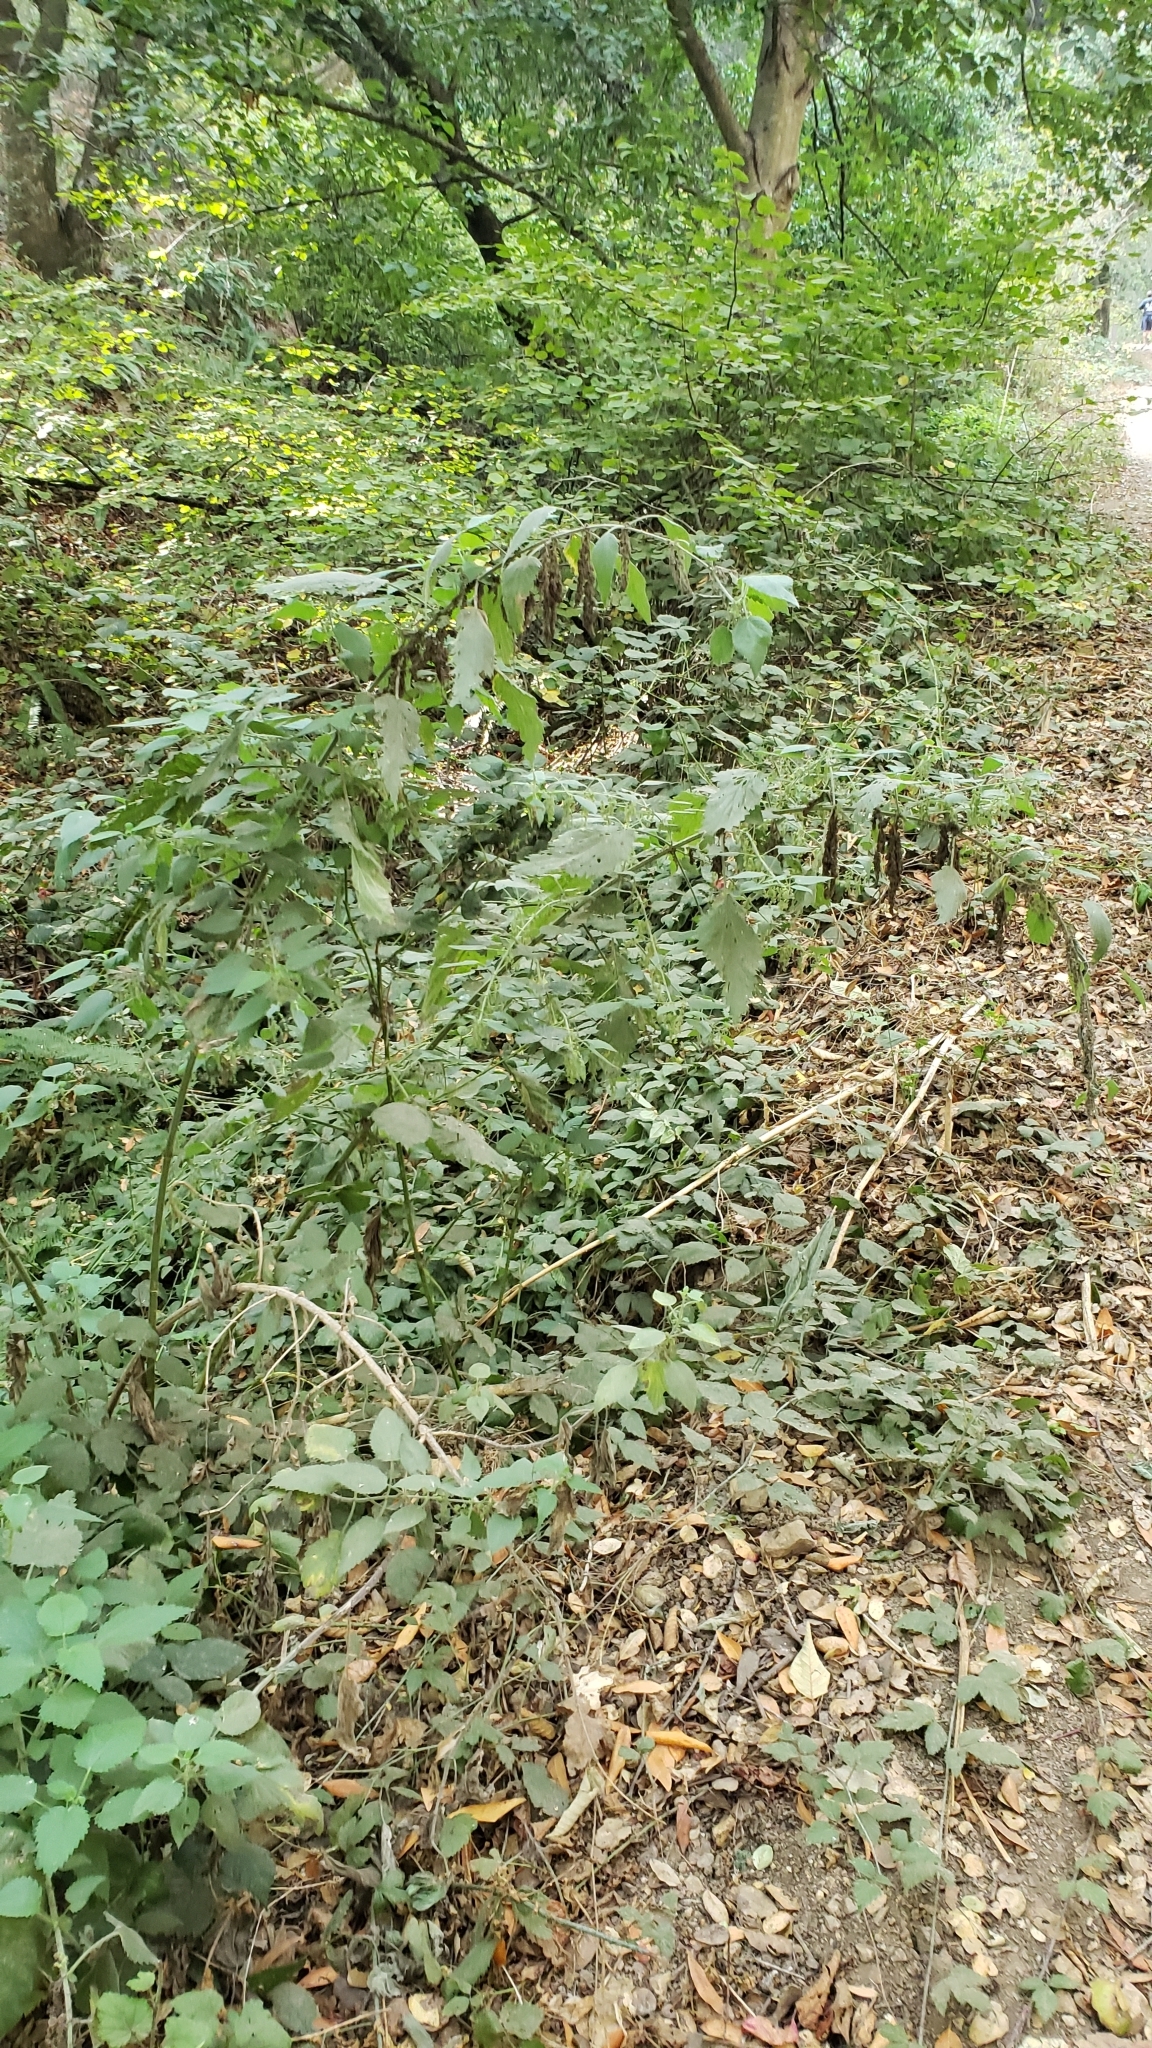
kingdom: Plantae
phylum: Tracheophyta
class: Magnoliopsida
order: Rosales
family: Urticaceae
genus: Urtica
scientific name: Urtica dioica
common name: Common nettle
